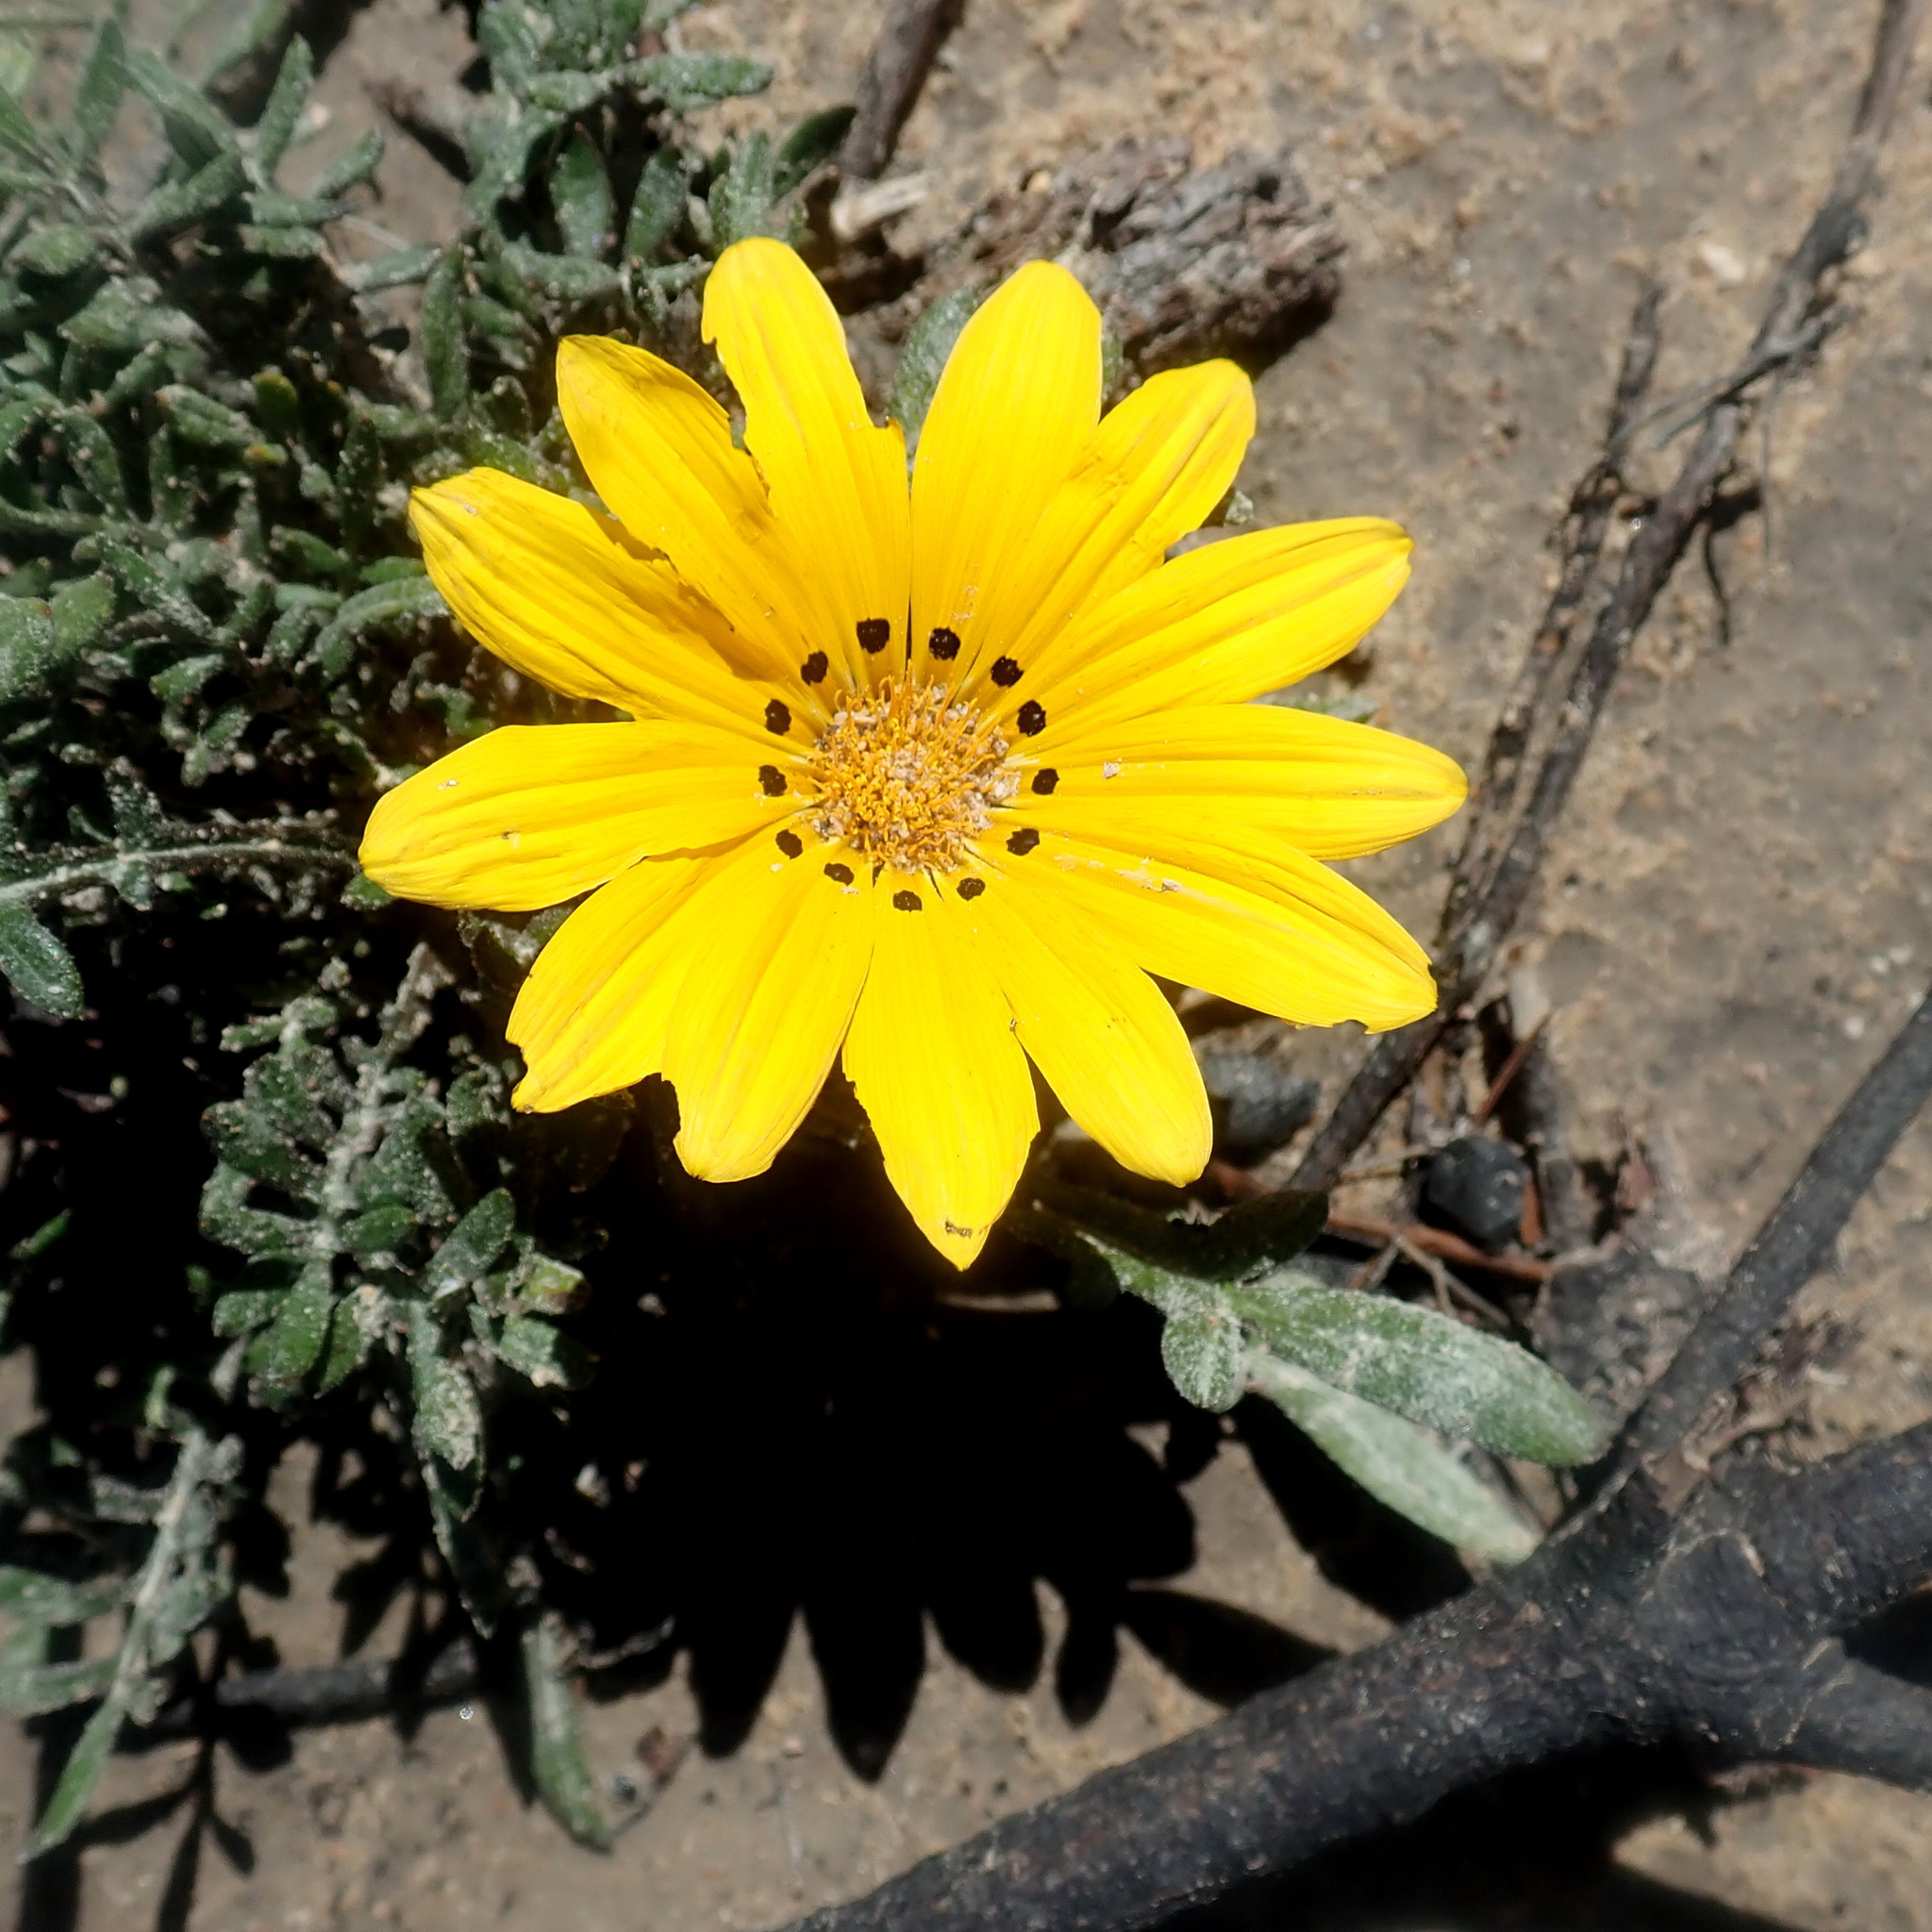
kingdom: Plantae
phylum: Tracheophyta
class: Magnoliopsida
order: Asterales
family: Asteraceae
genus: Gazania
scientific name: Gazania krebsiana
